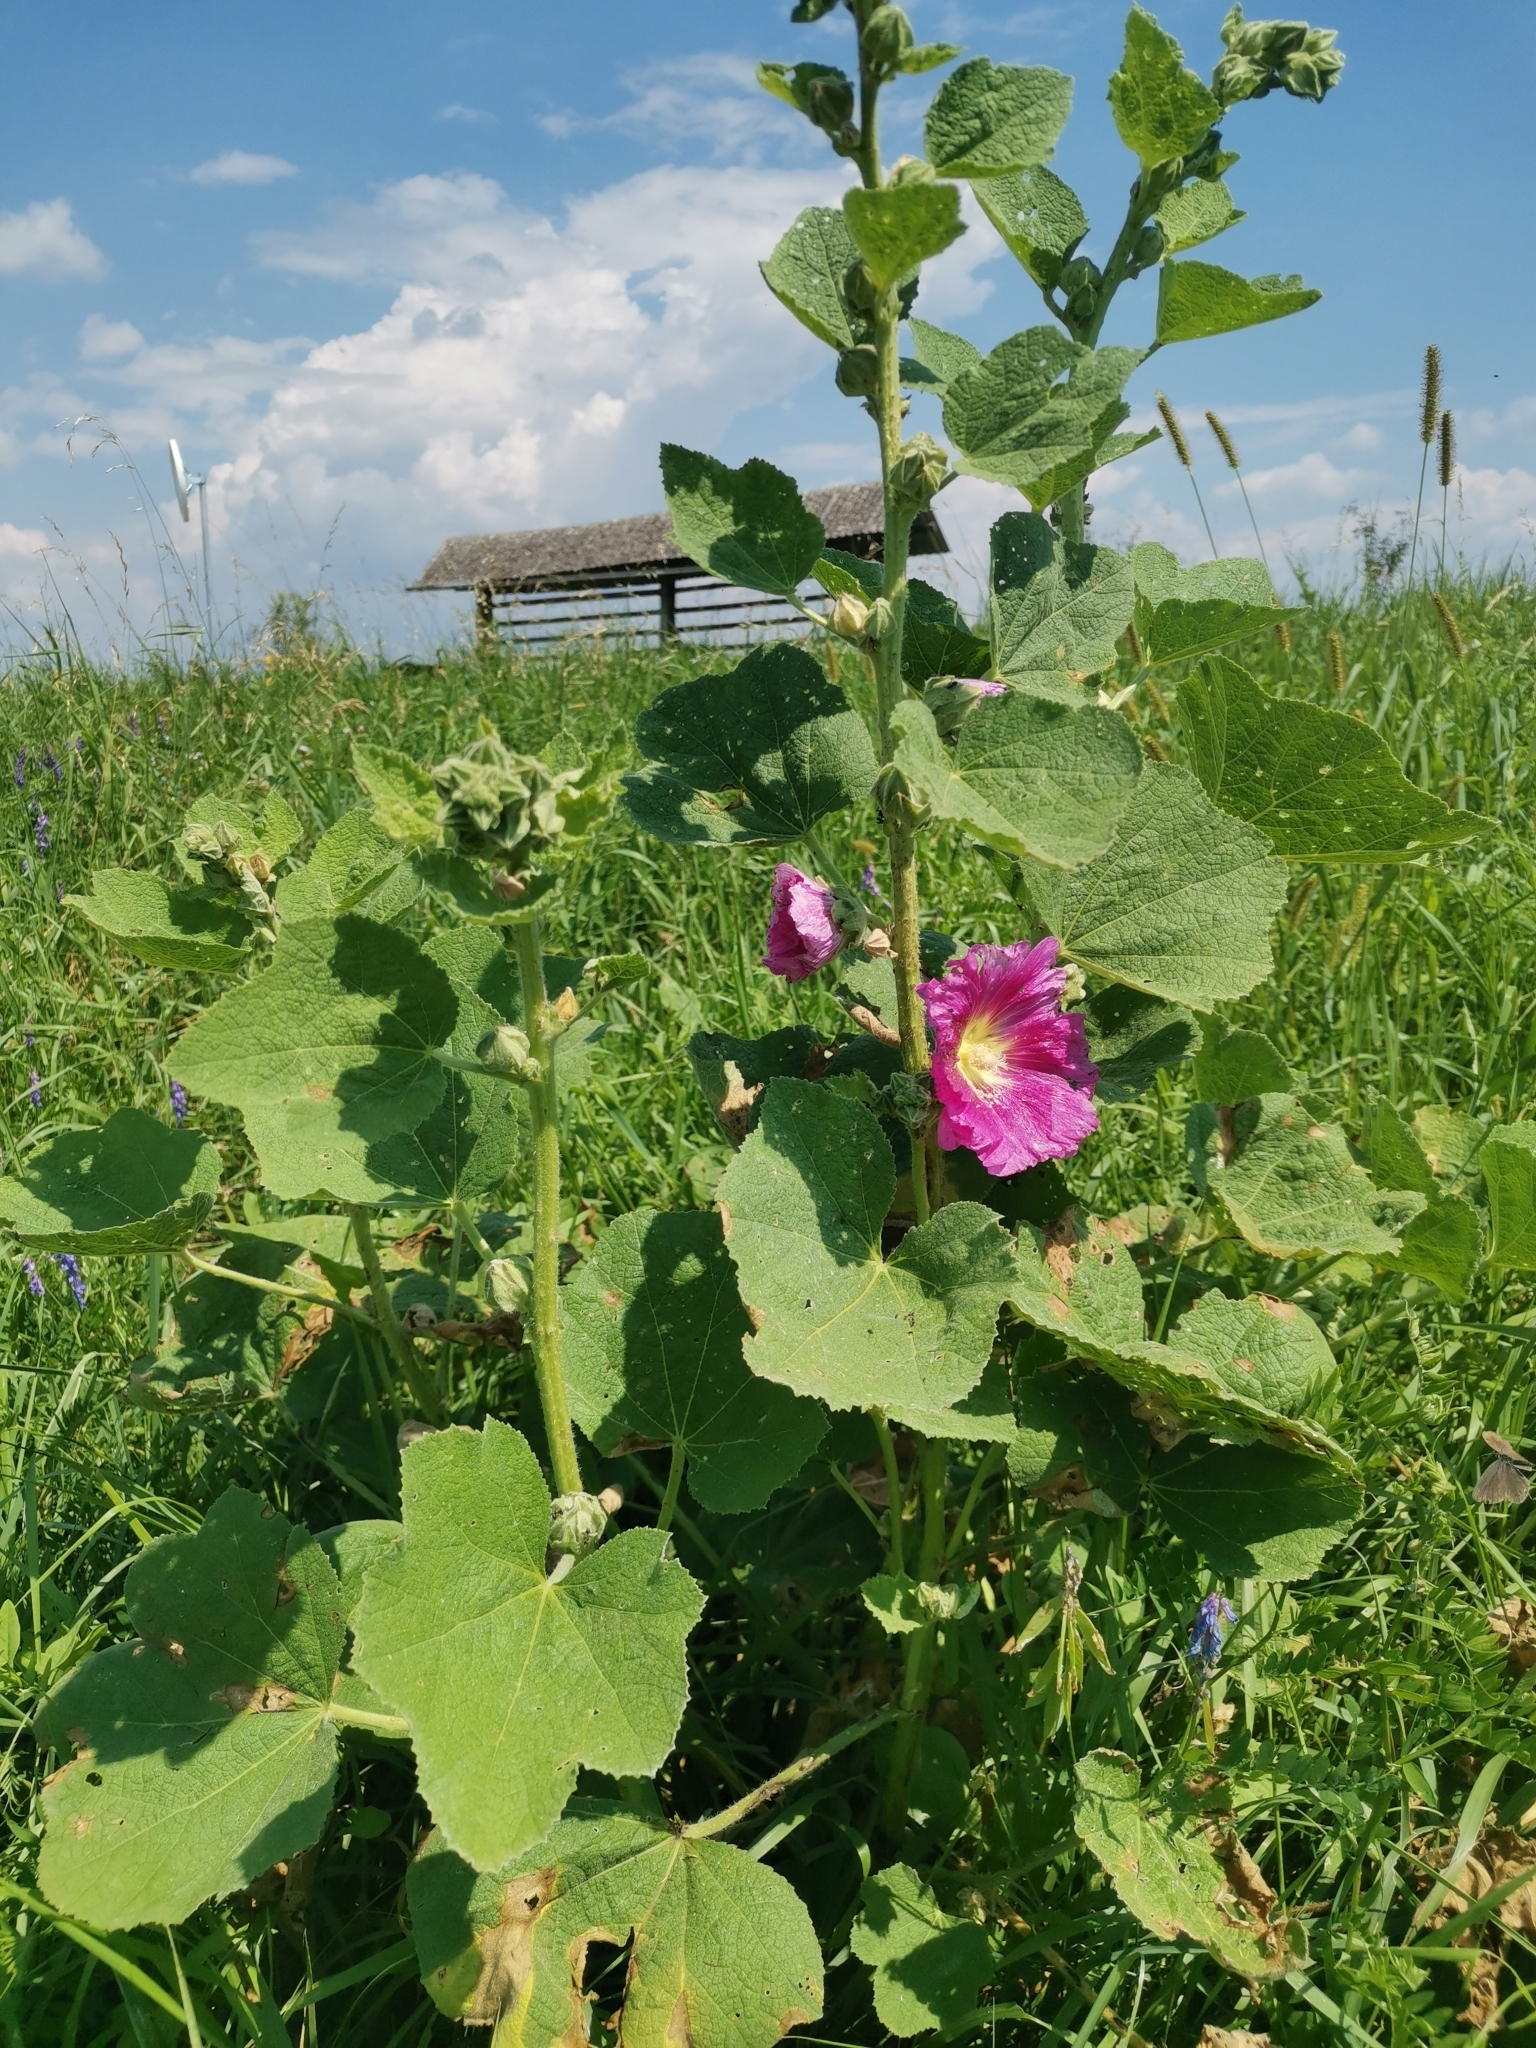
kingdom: Plantae
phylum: Tracheophyta
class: Magnoliopsida
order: Malvales
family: Malvaceae
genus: Alcea
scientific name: Alcea rosea
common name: Hollyhock
